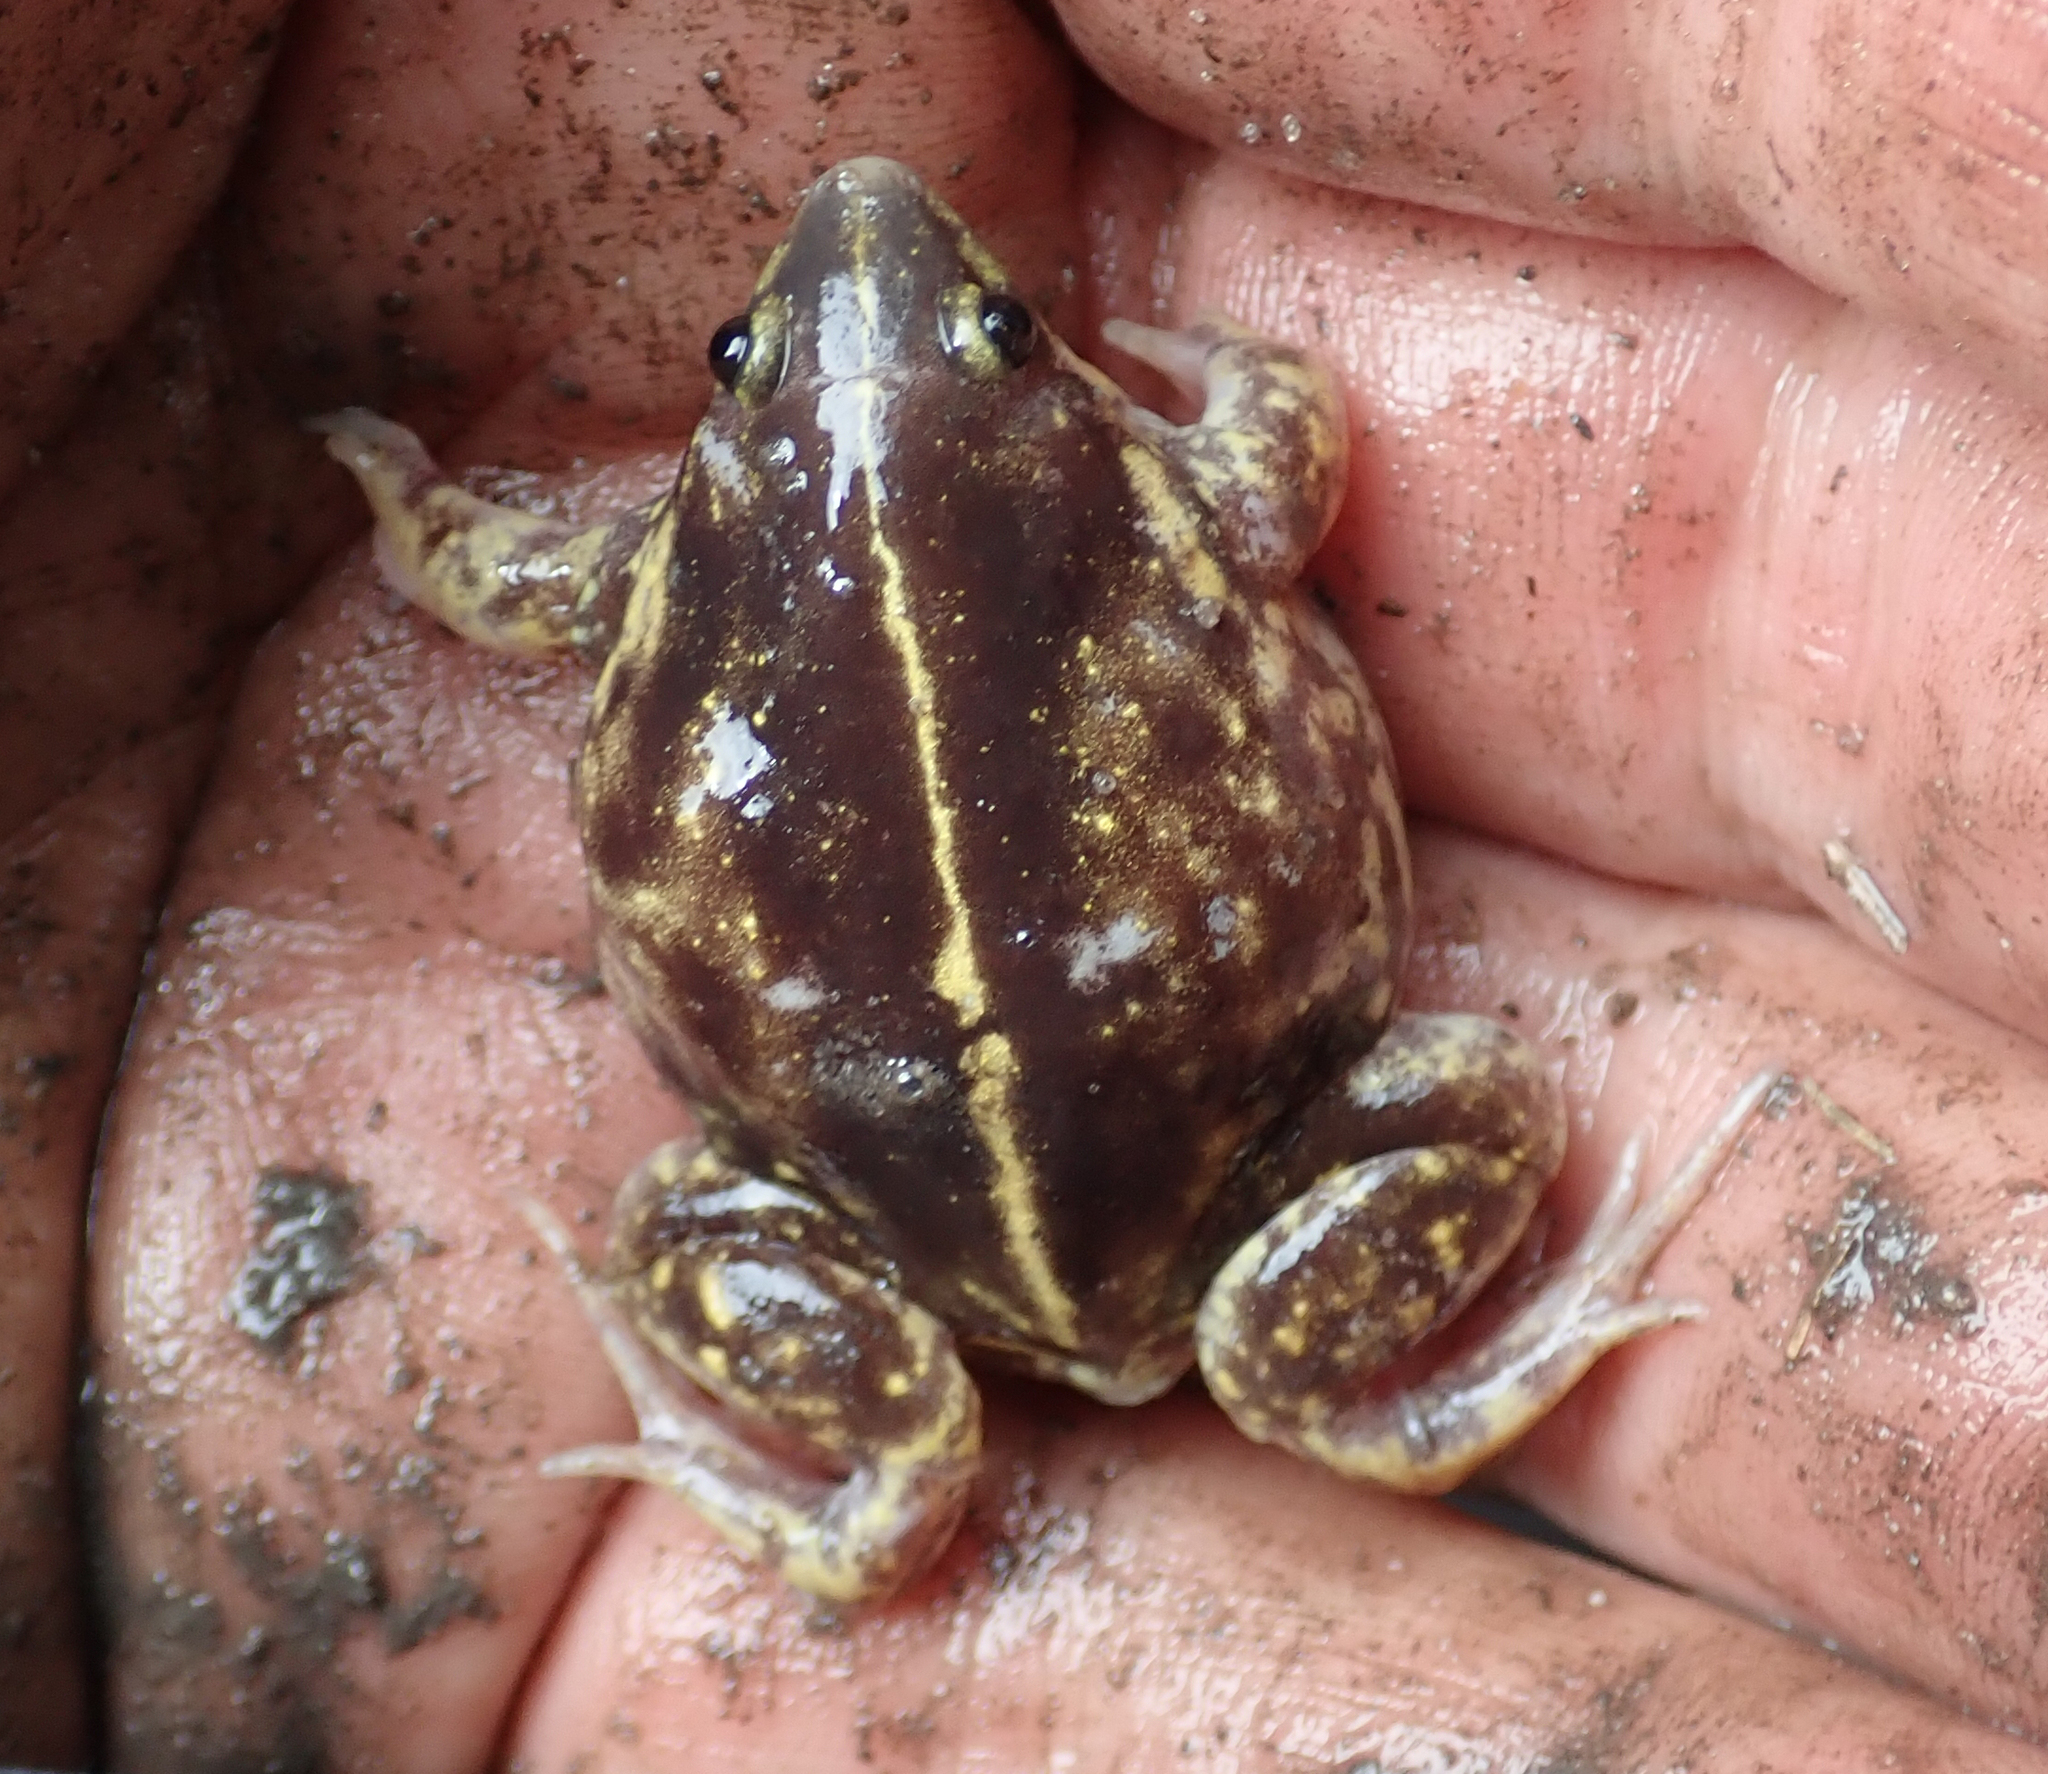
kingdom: Animalia
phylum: Chordata
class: Amphibia
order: Anura
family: Hemisotidae
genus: Hemisus
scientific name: Hemisus guineensis
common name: Guinea snout-burrower
